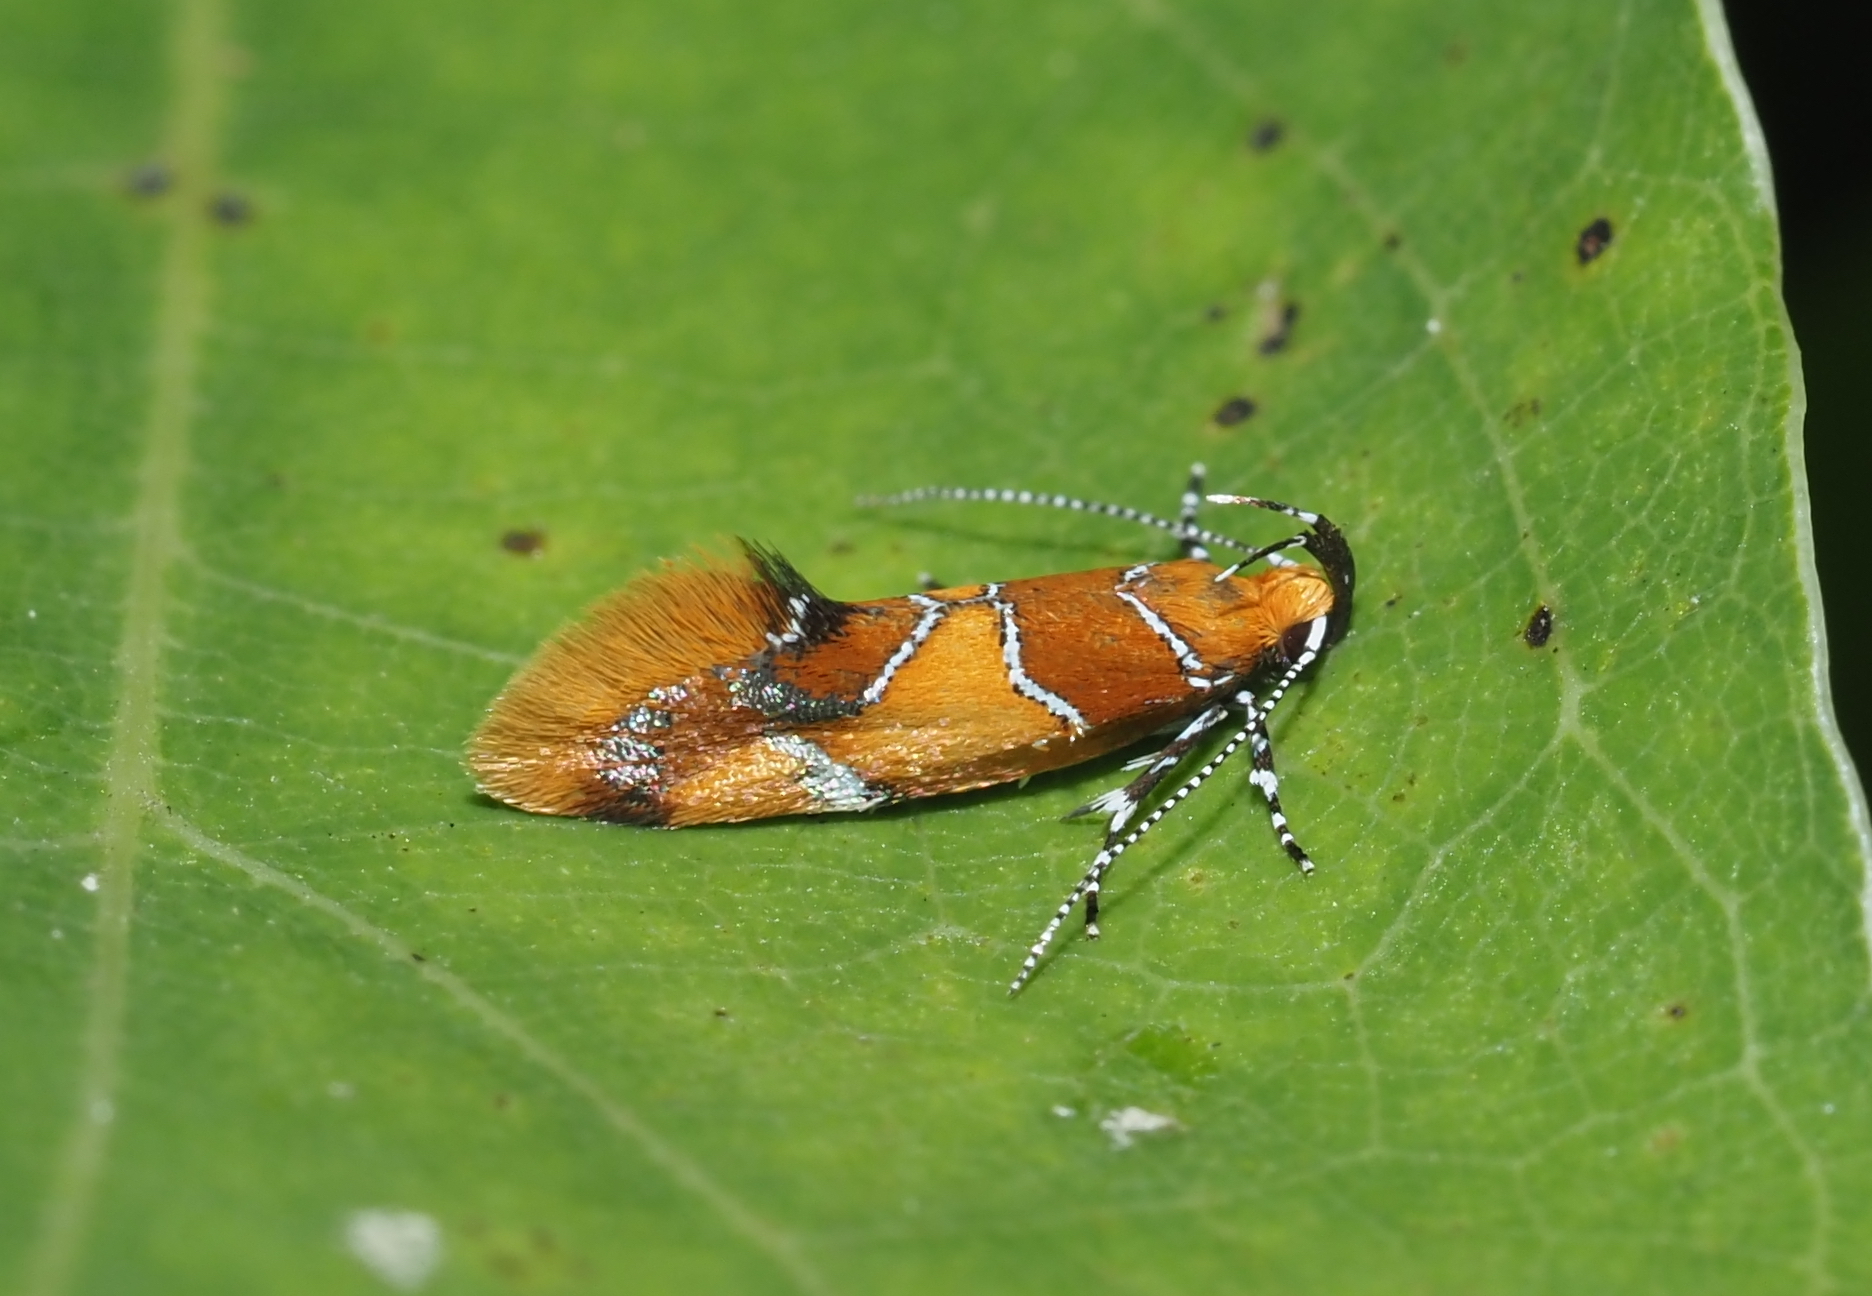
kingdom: Animalia
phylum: Arthropoda
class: Insecta
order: Lepidoptera
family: Oecophoridae
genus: Callima
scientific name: Callima argenticinctella
